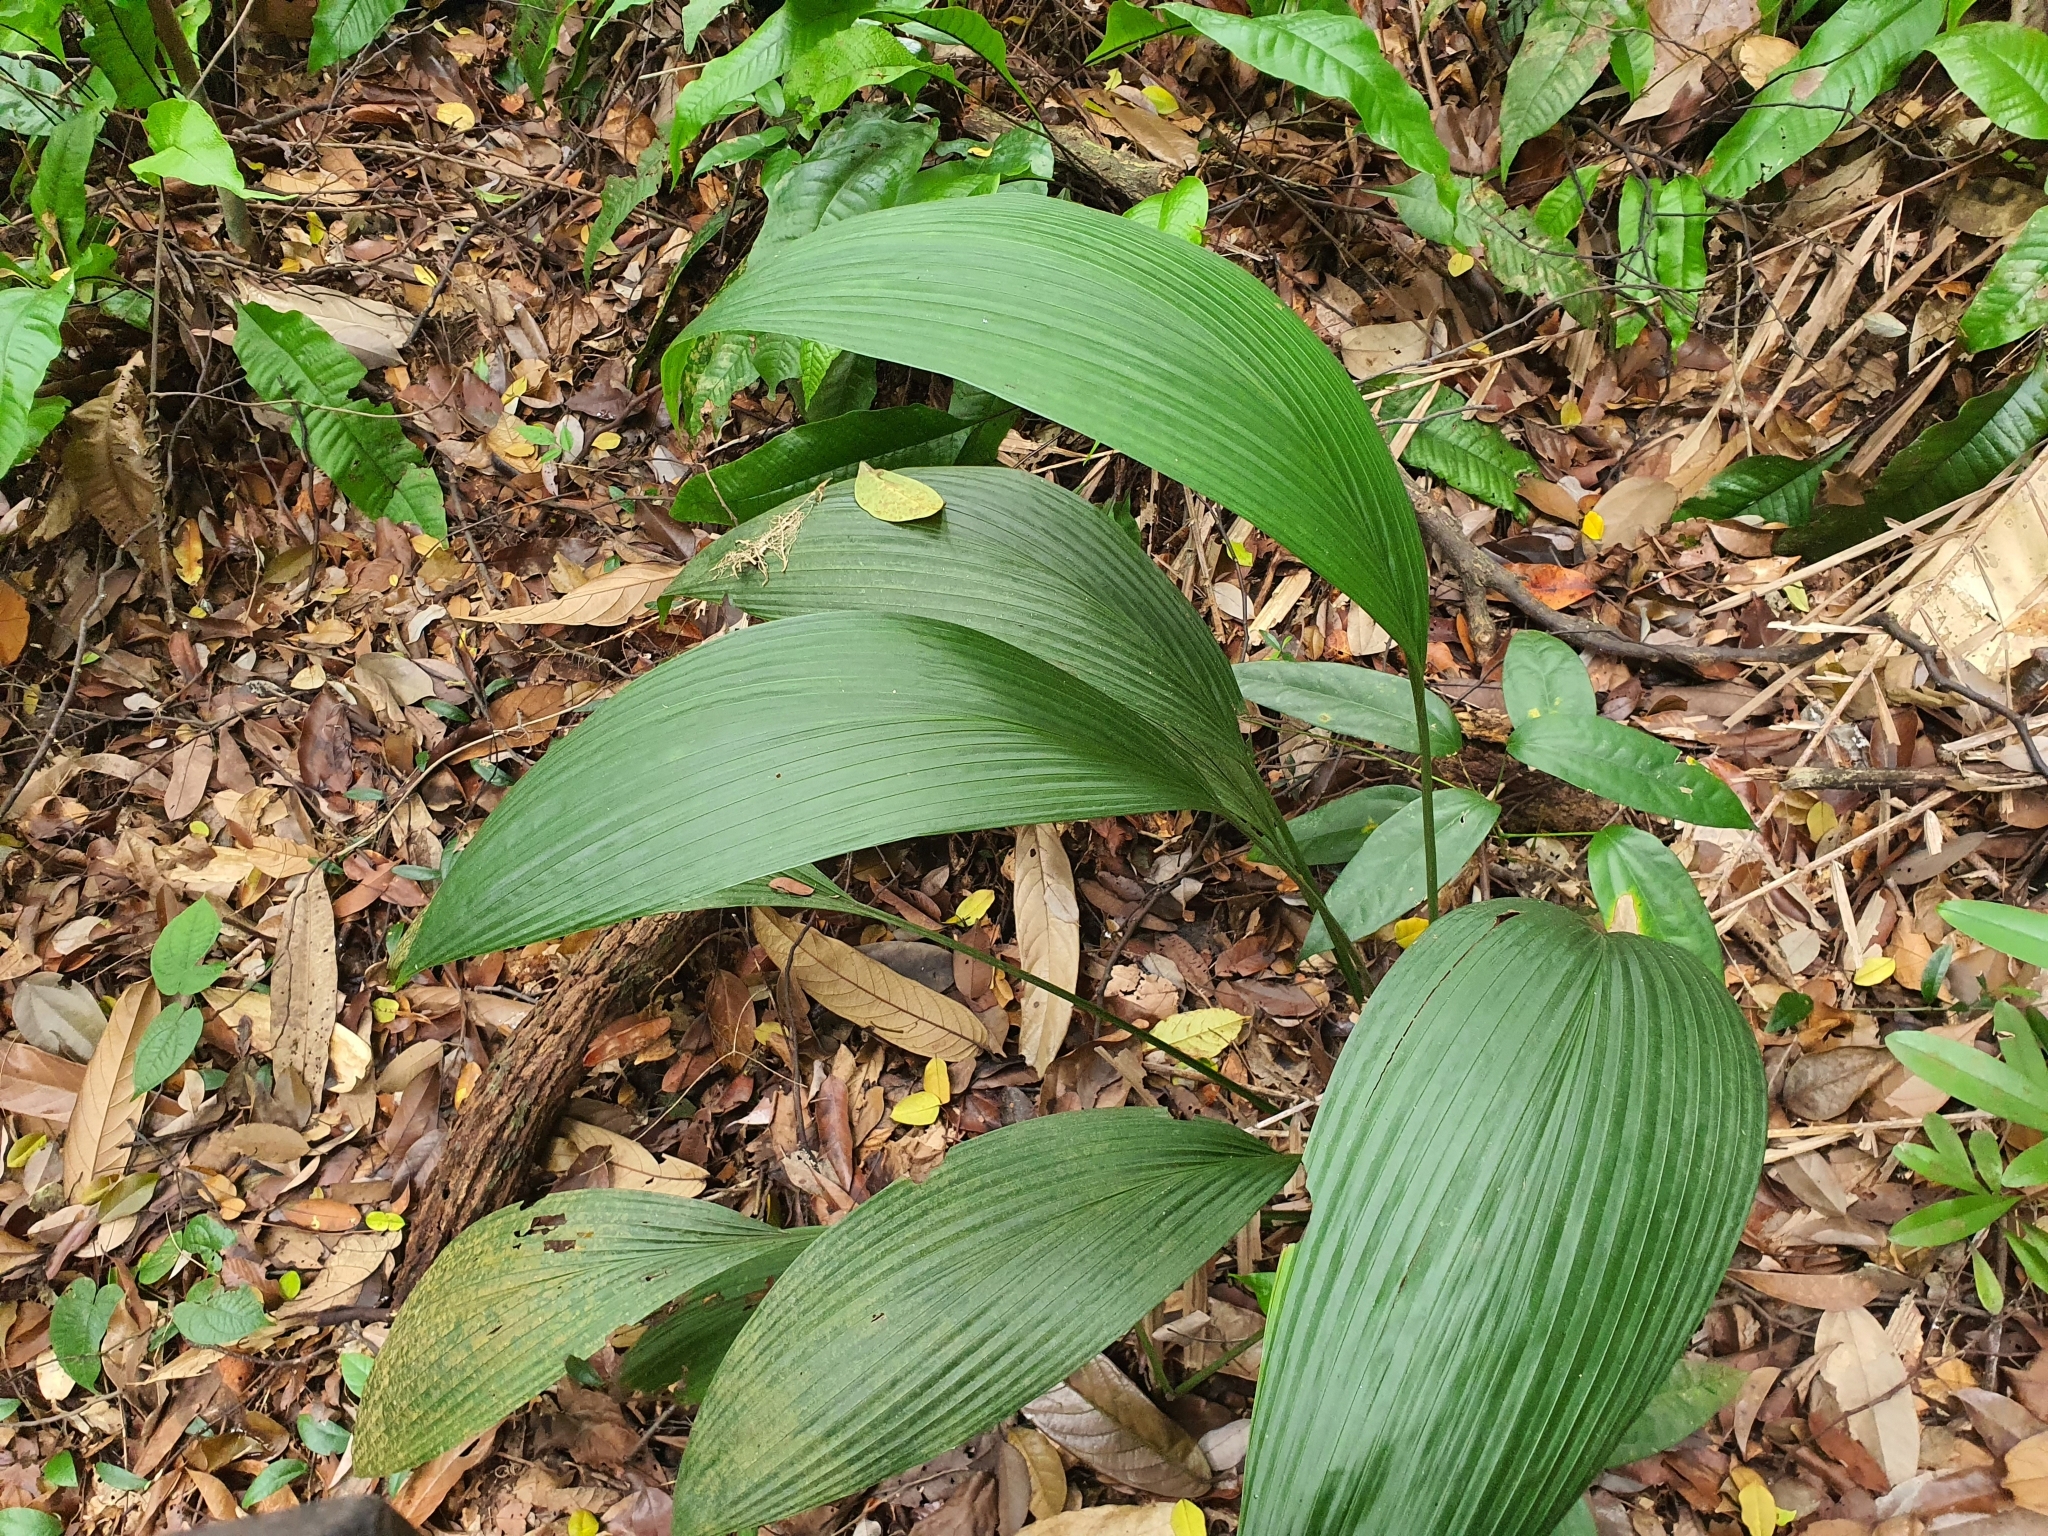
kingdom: Plantae
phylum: Tracheophyta
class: Liliopsida
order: Asparagales
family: Hypoxidaceae
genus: Curculigo
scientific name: Curculigo capitulata
